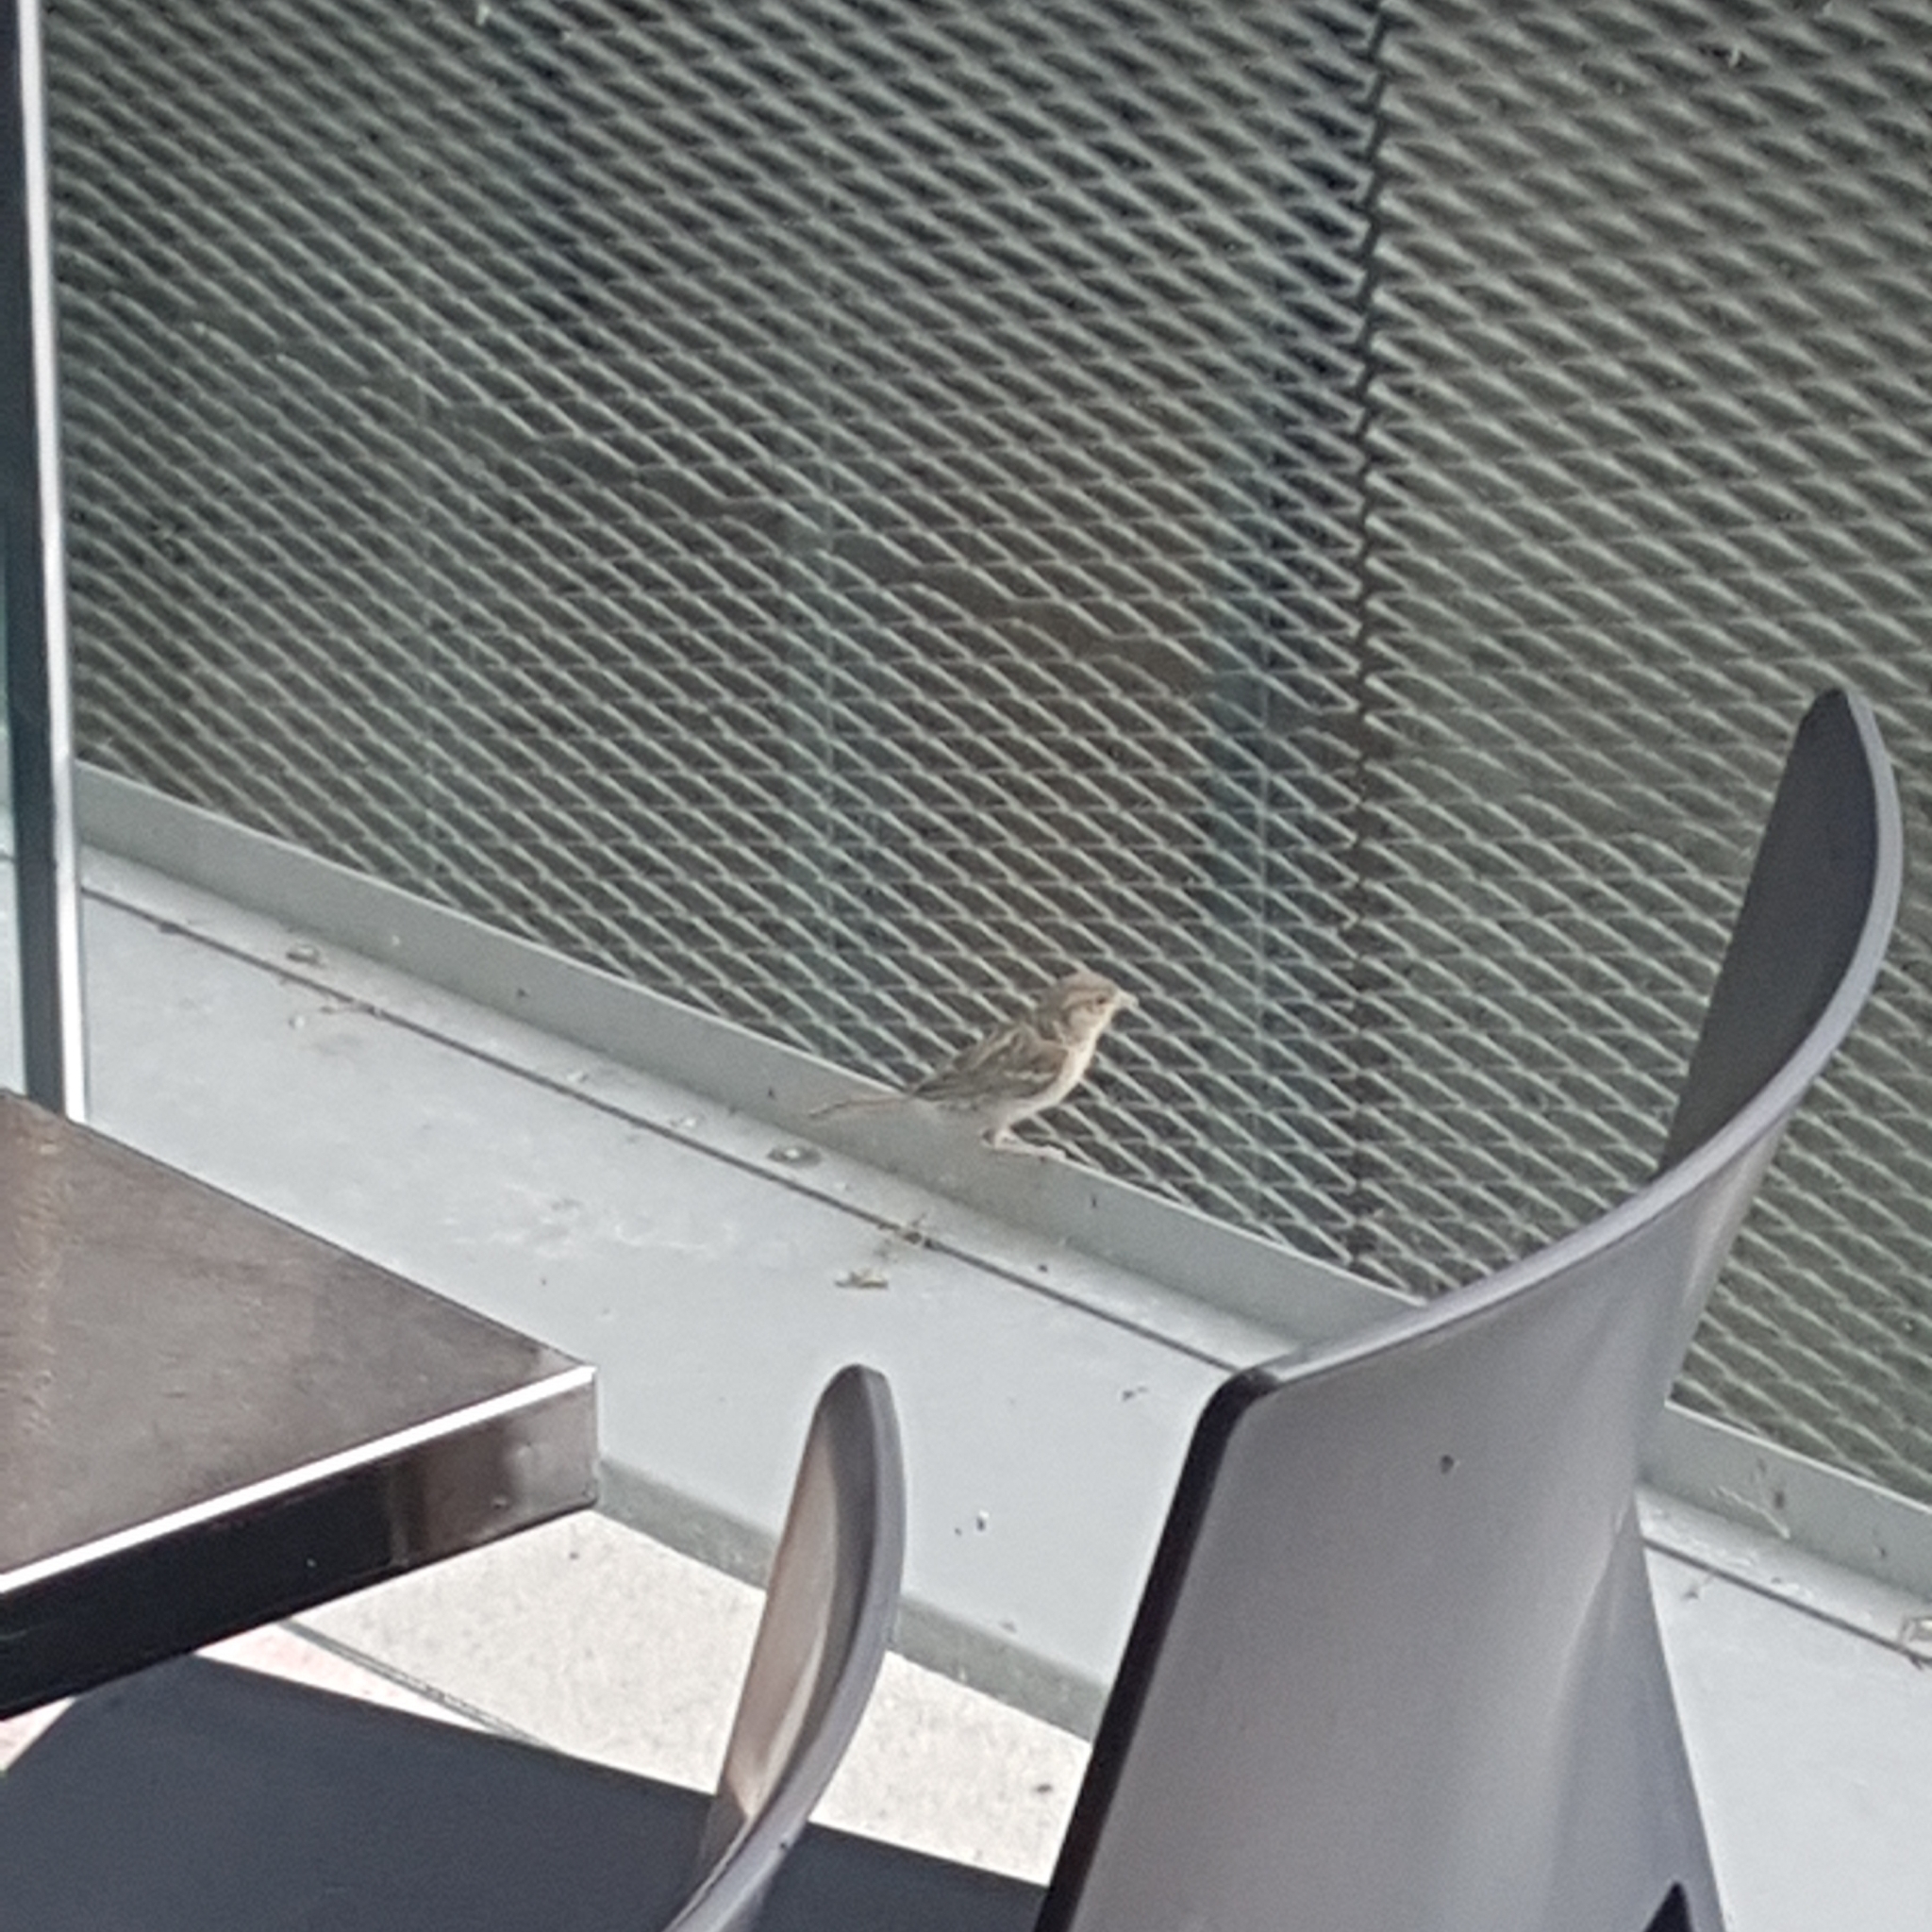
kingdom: Animalia
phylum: Chordata
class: Aves
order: Passeriformes
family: Passeridae
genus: Passer
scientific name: Passer domesticus
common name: House sparrow
